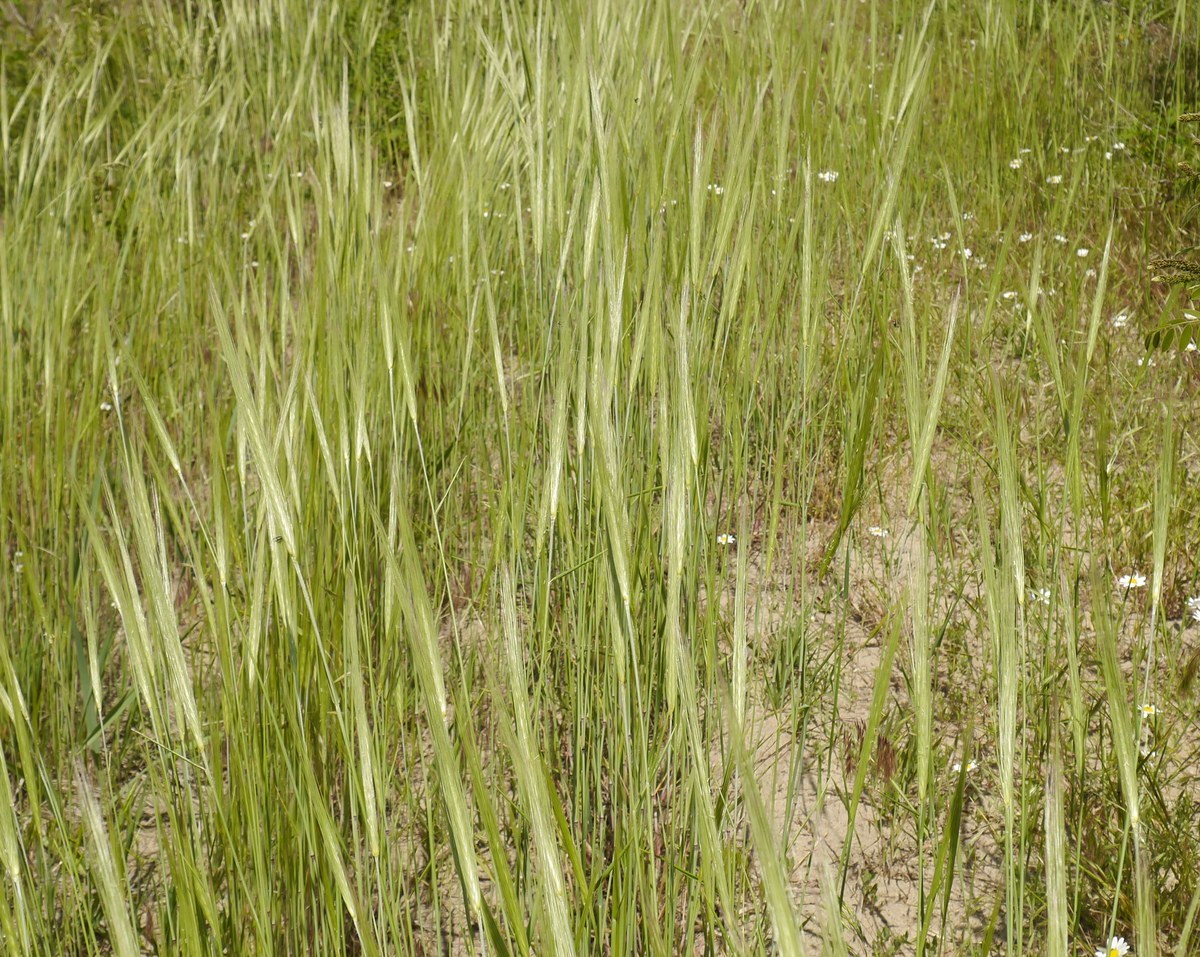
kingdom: Plantae
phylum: Tracheophyta
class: Liliopsida
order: Poales
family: Poaceae
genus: Secale
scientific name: Secale sylvestre
